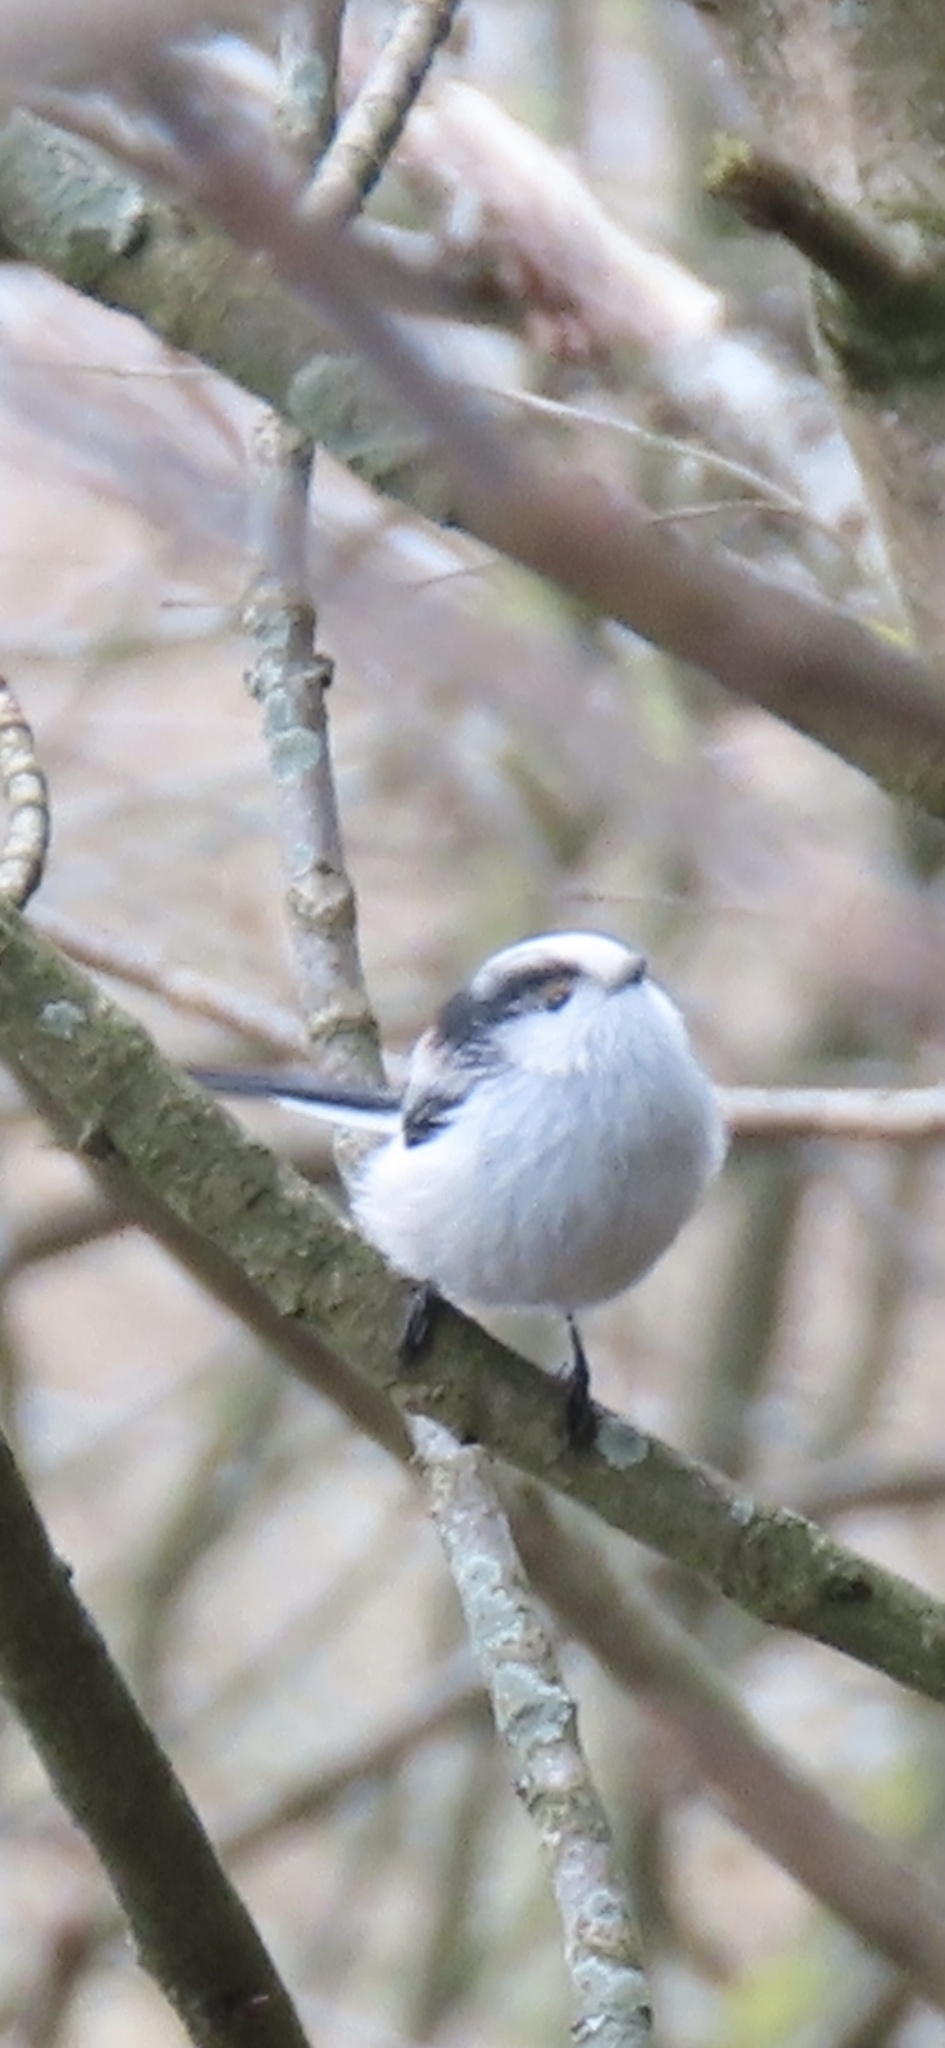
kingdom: Animalia
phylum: Chordata
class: Aves
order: Passeriformes
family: Aegithalidae
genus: Aegithalos
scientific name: Aegithalos caudatus
